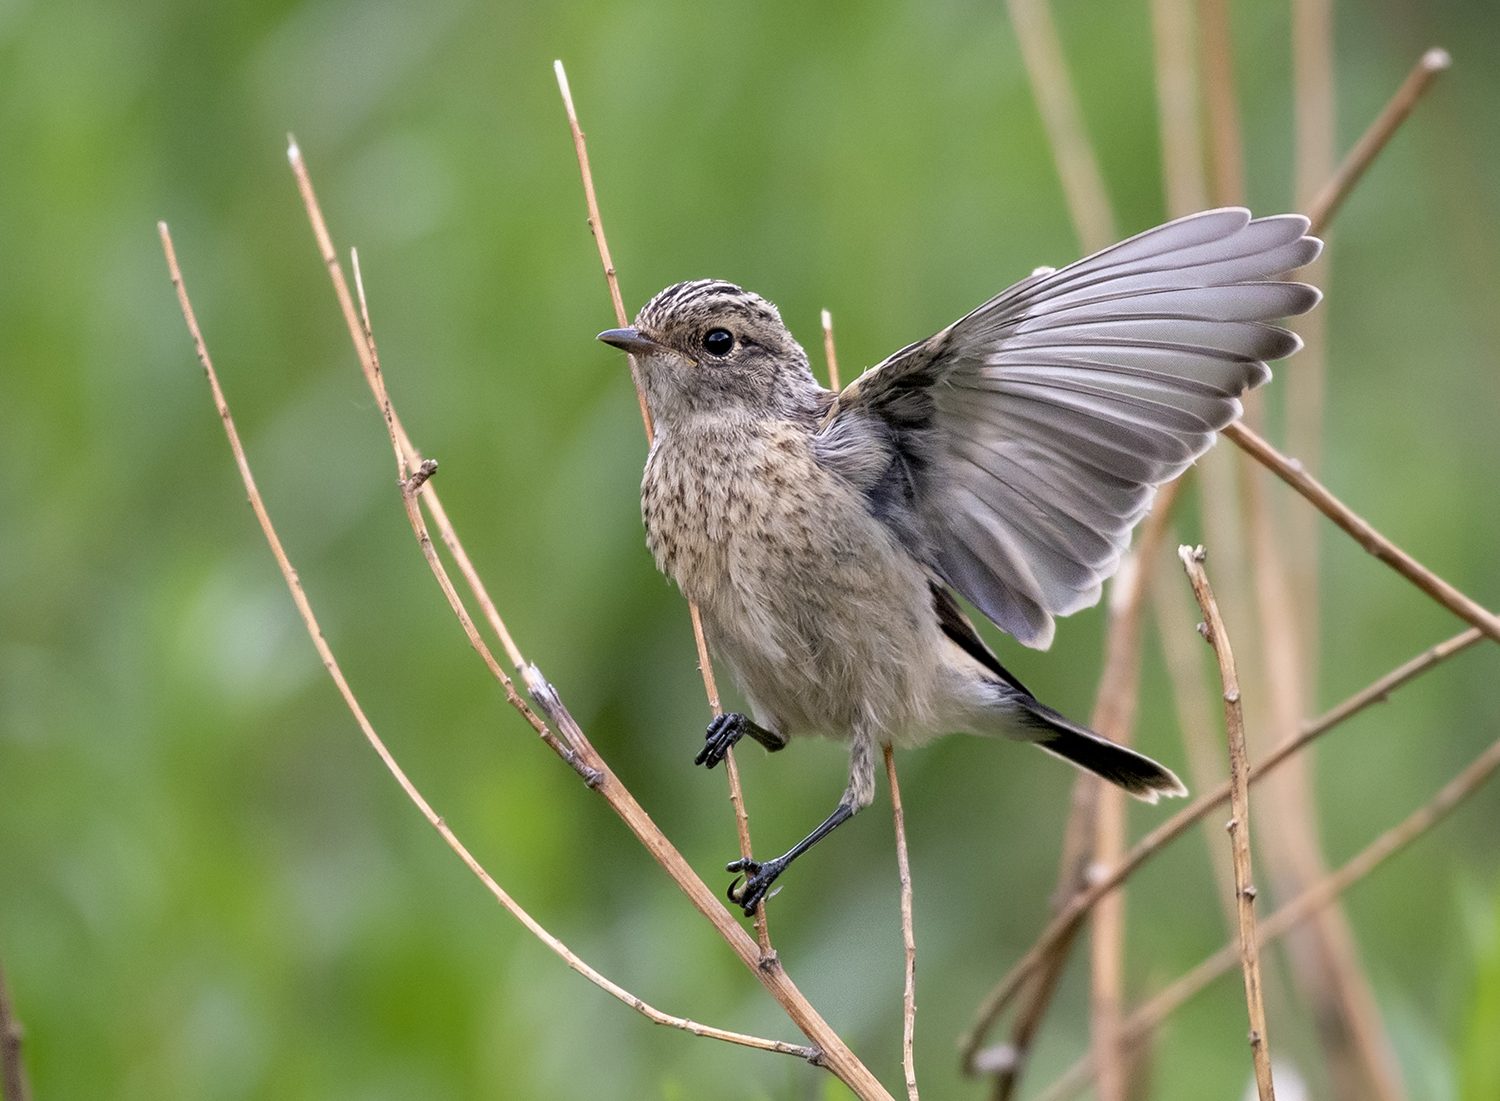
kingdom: Animalia
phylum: Chordata
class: Aves
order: Passeriformes
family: Muscicapidae
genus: Saxicola
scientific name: Saxicola maurus
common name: Siberian stonechat
